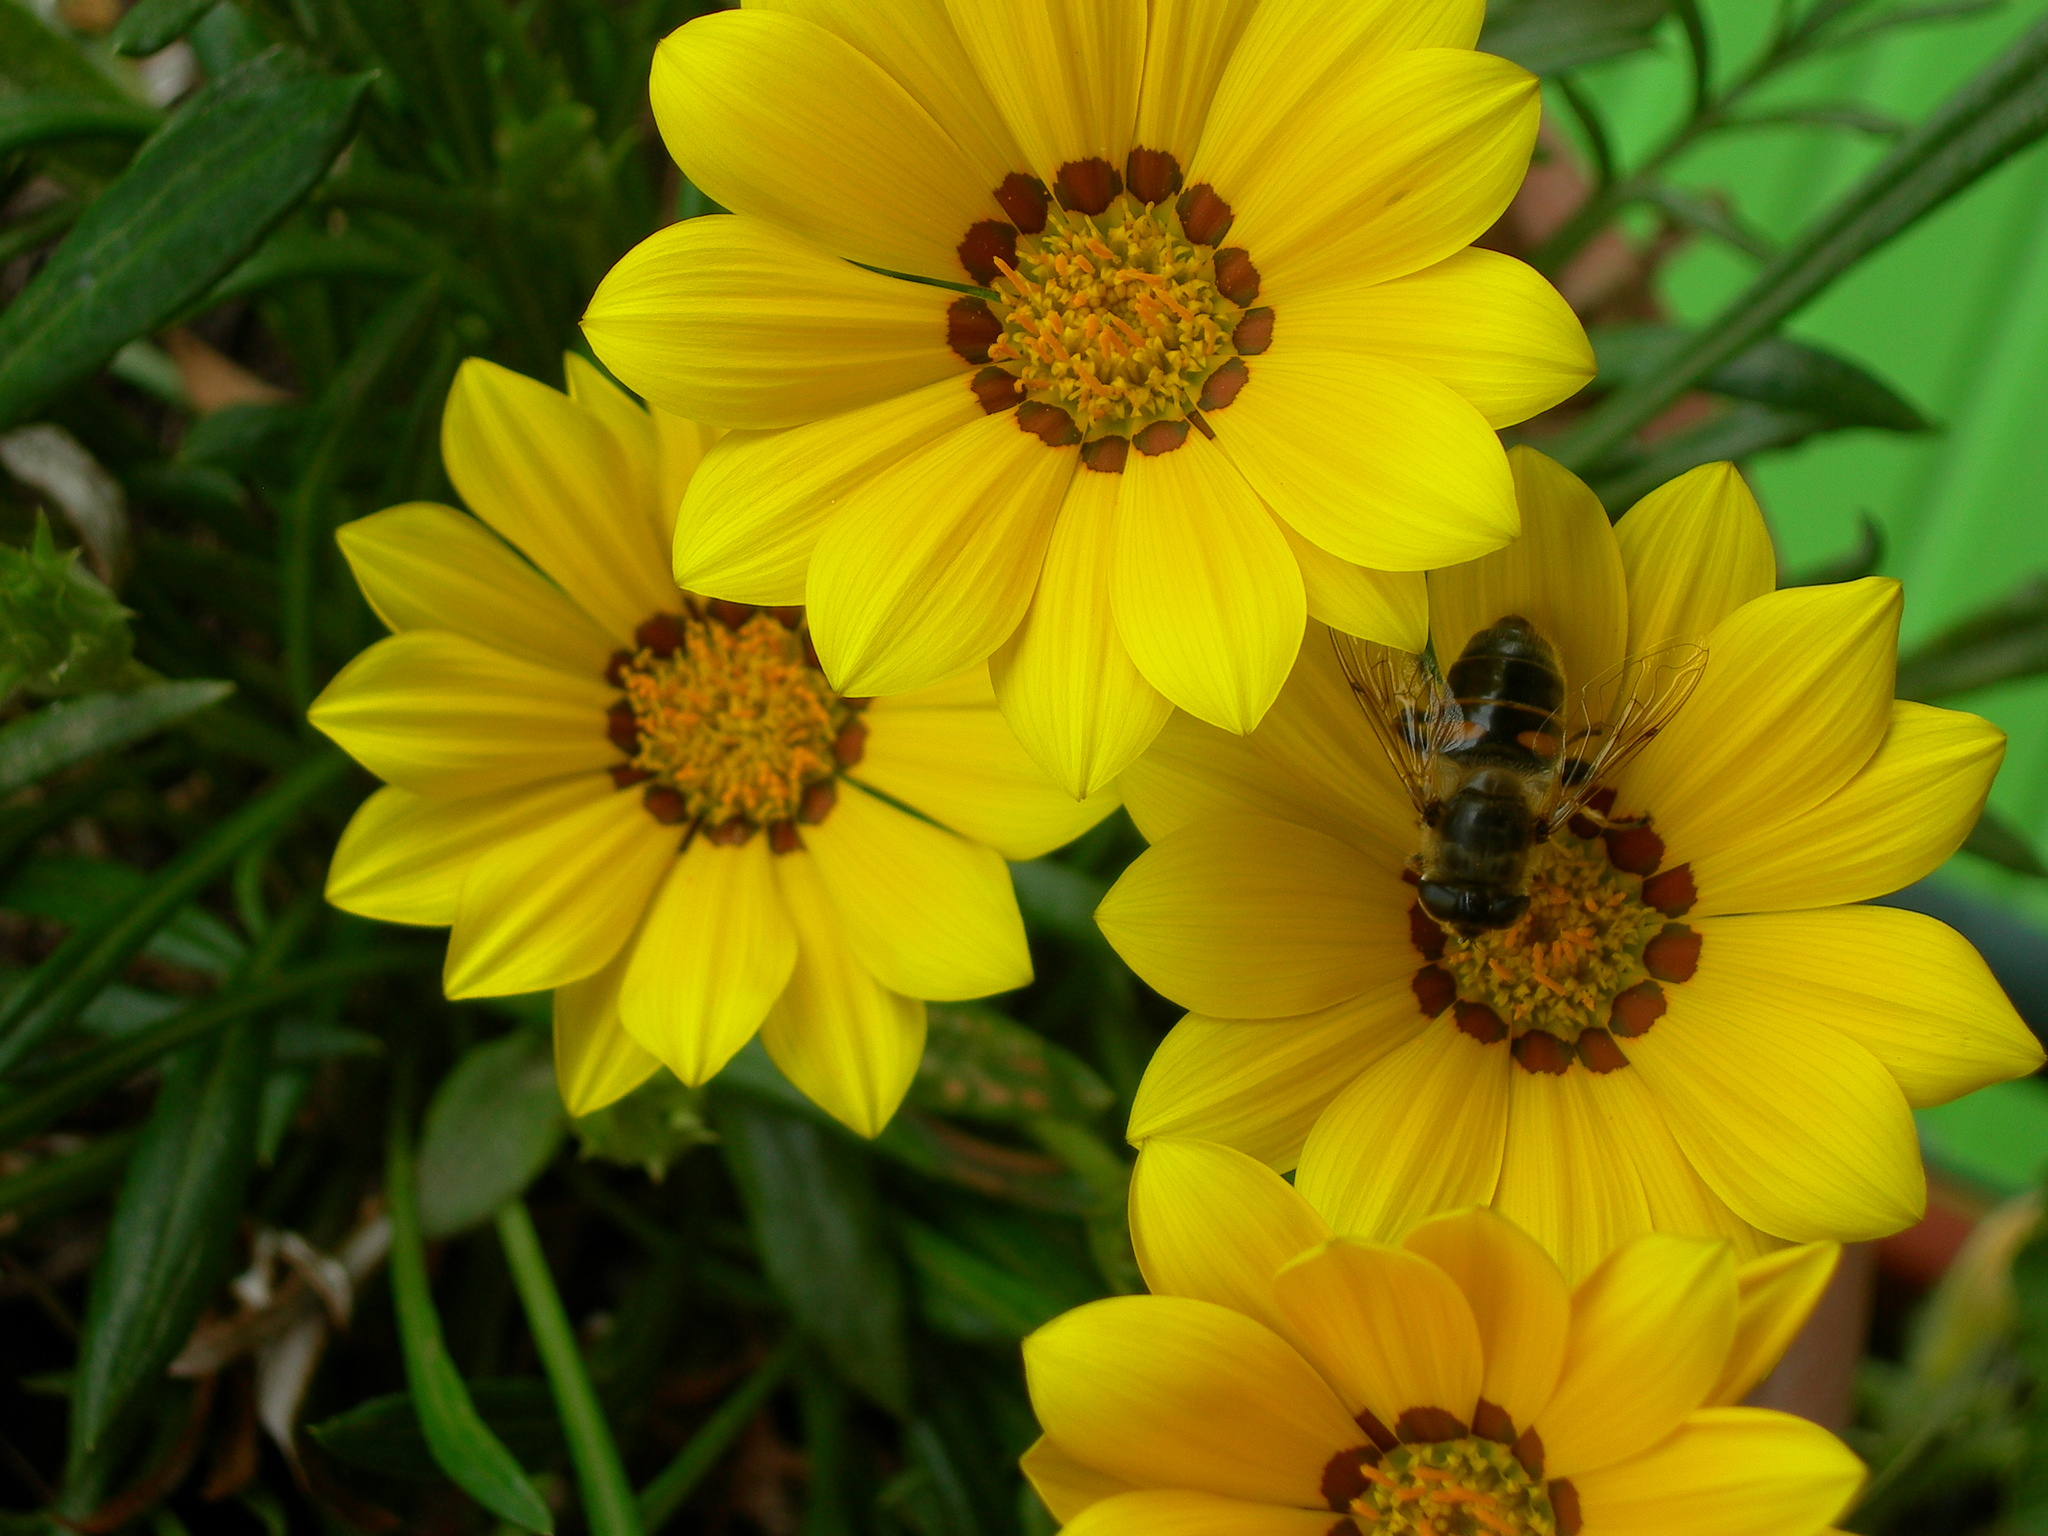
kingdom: Animalia
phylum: Arthropoda
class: Insecta
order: Diptera
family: Syrphidae
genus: Eristalis
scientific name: Eristalis tenax
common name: Drone fly
